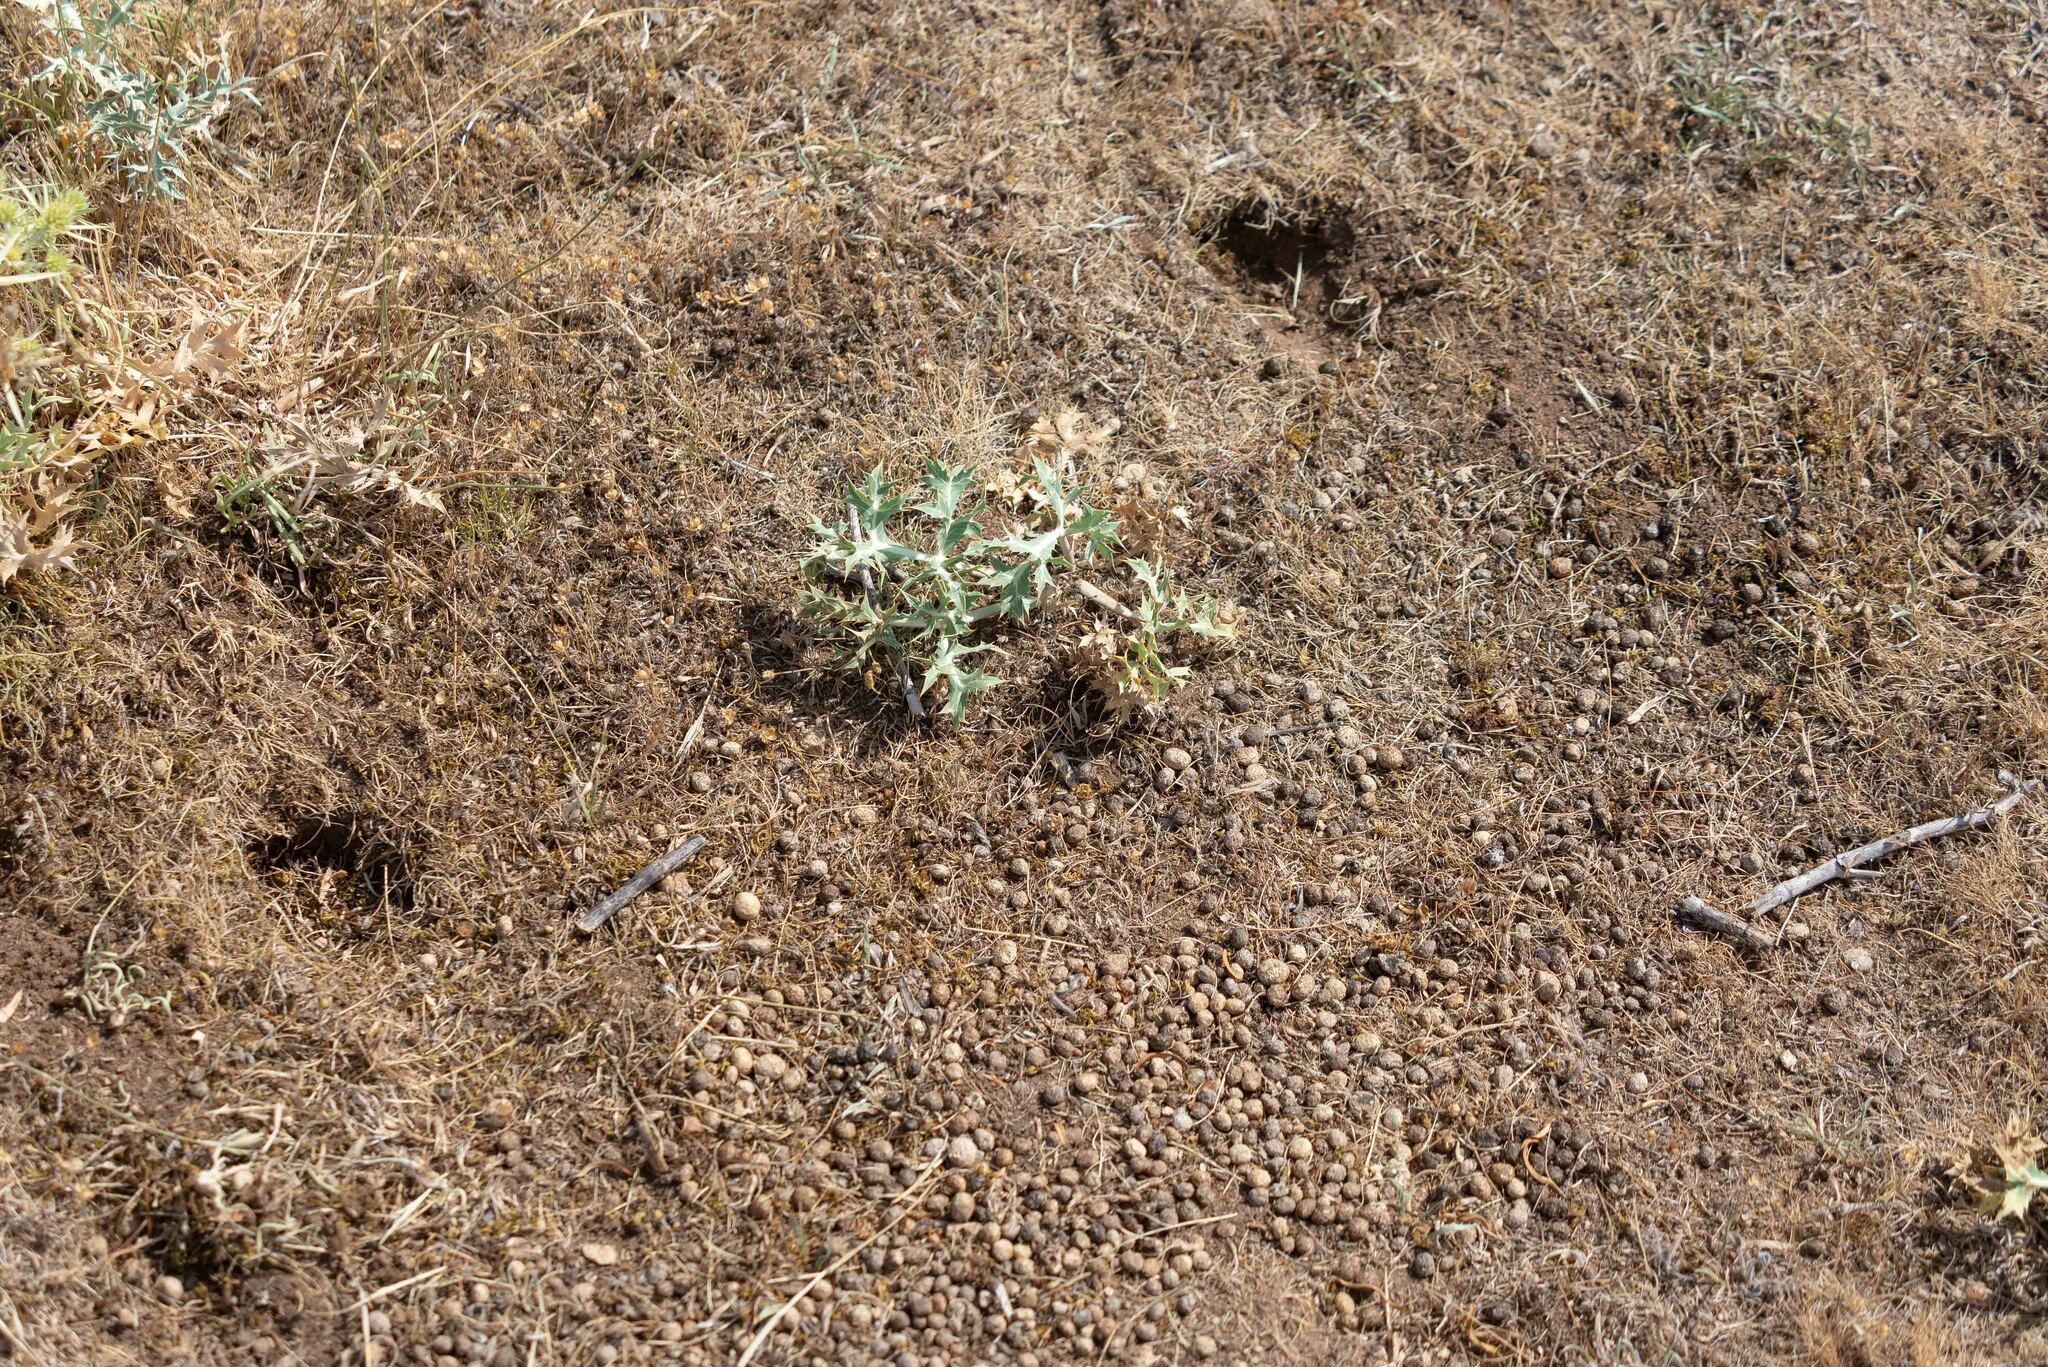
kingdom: Animalia
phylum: Chordata
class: Mammalia
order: Lagomorpha
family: Leporidae
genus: Oryctolagus
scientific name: Oryctolagus cuniculus
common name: European rabbit
